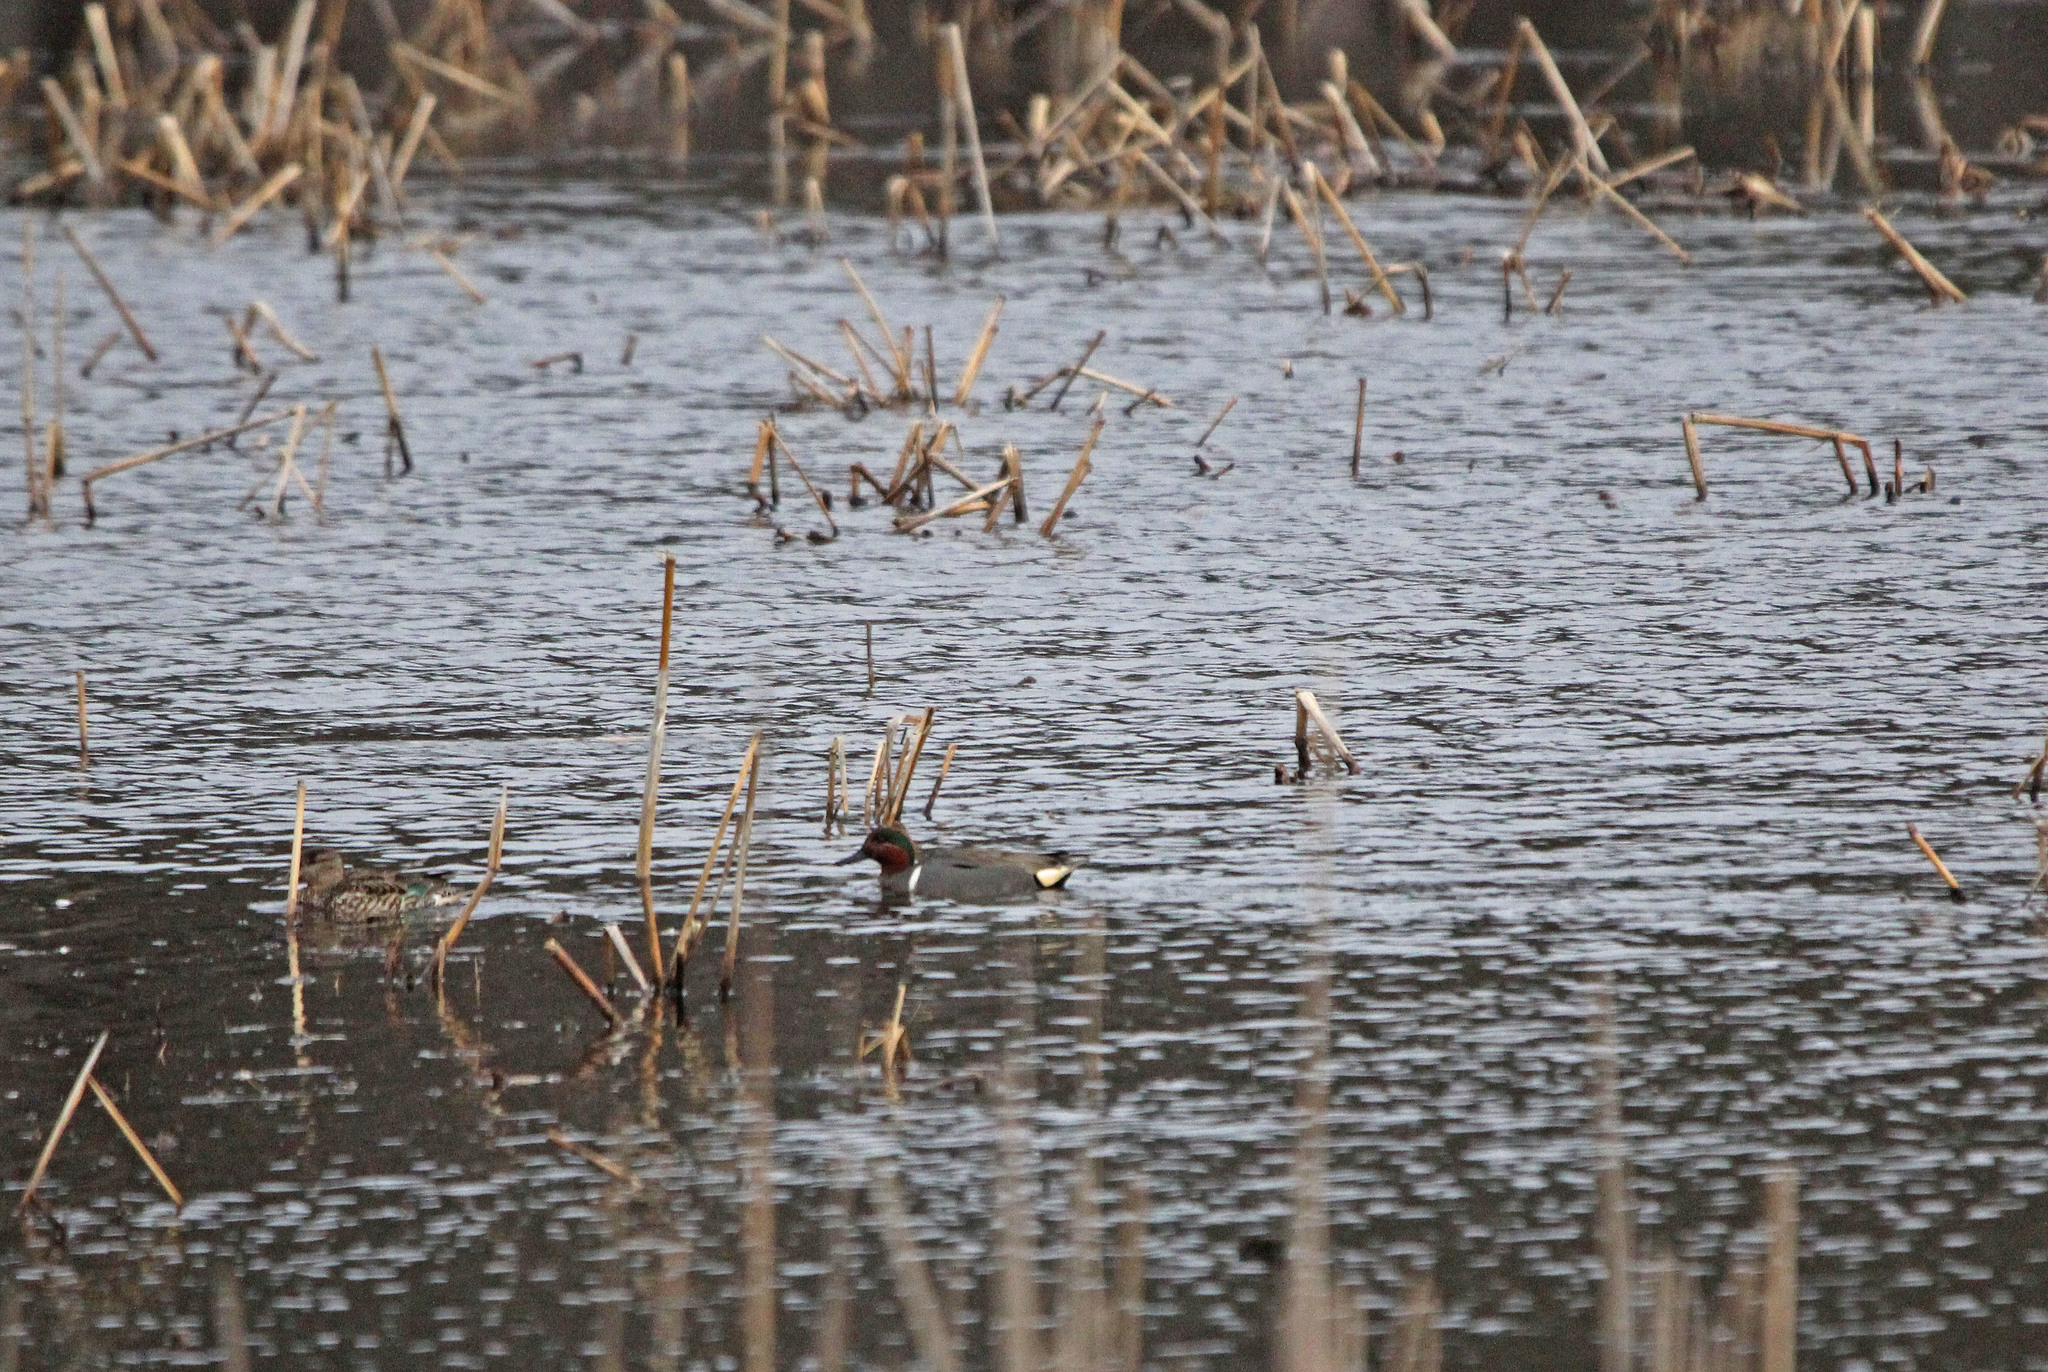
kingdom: Animalia
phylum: Chordata
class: Aves
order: Anseriformes
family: Anatidae
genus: Anas
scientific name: Anas carolinensis
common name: Green-winged teal
